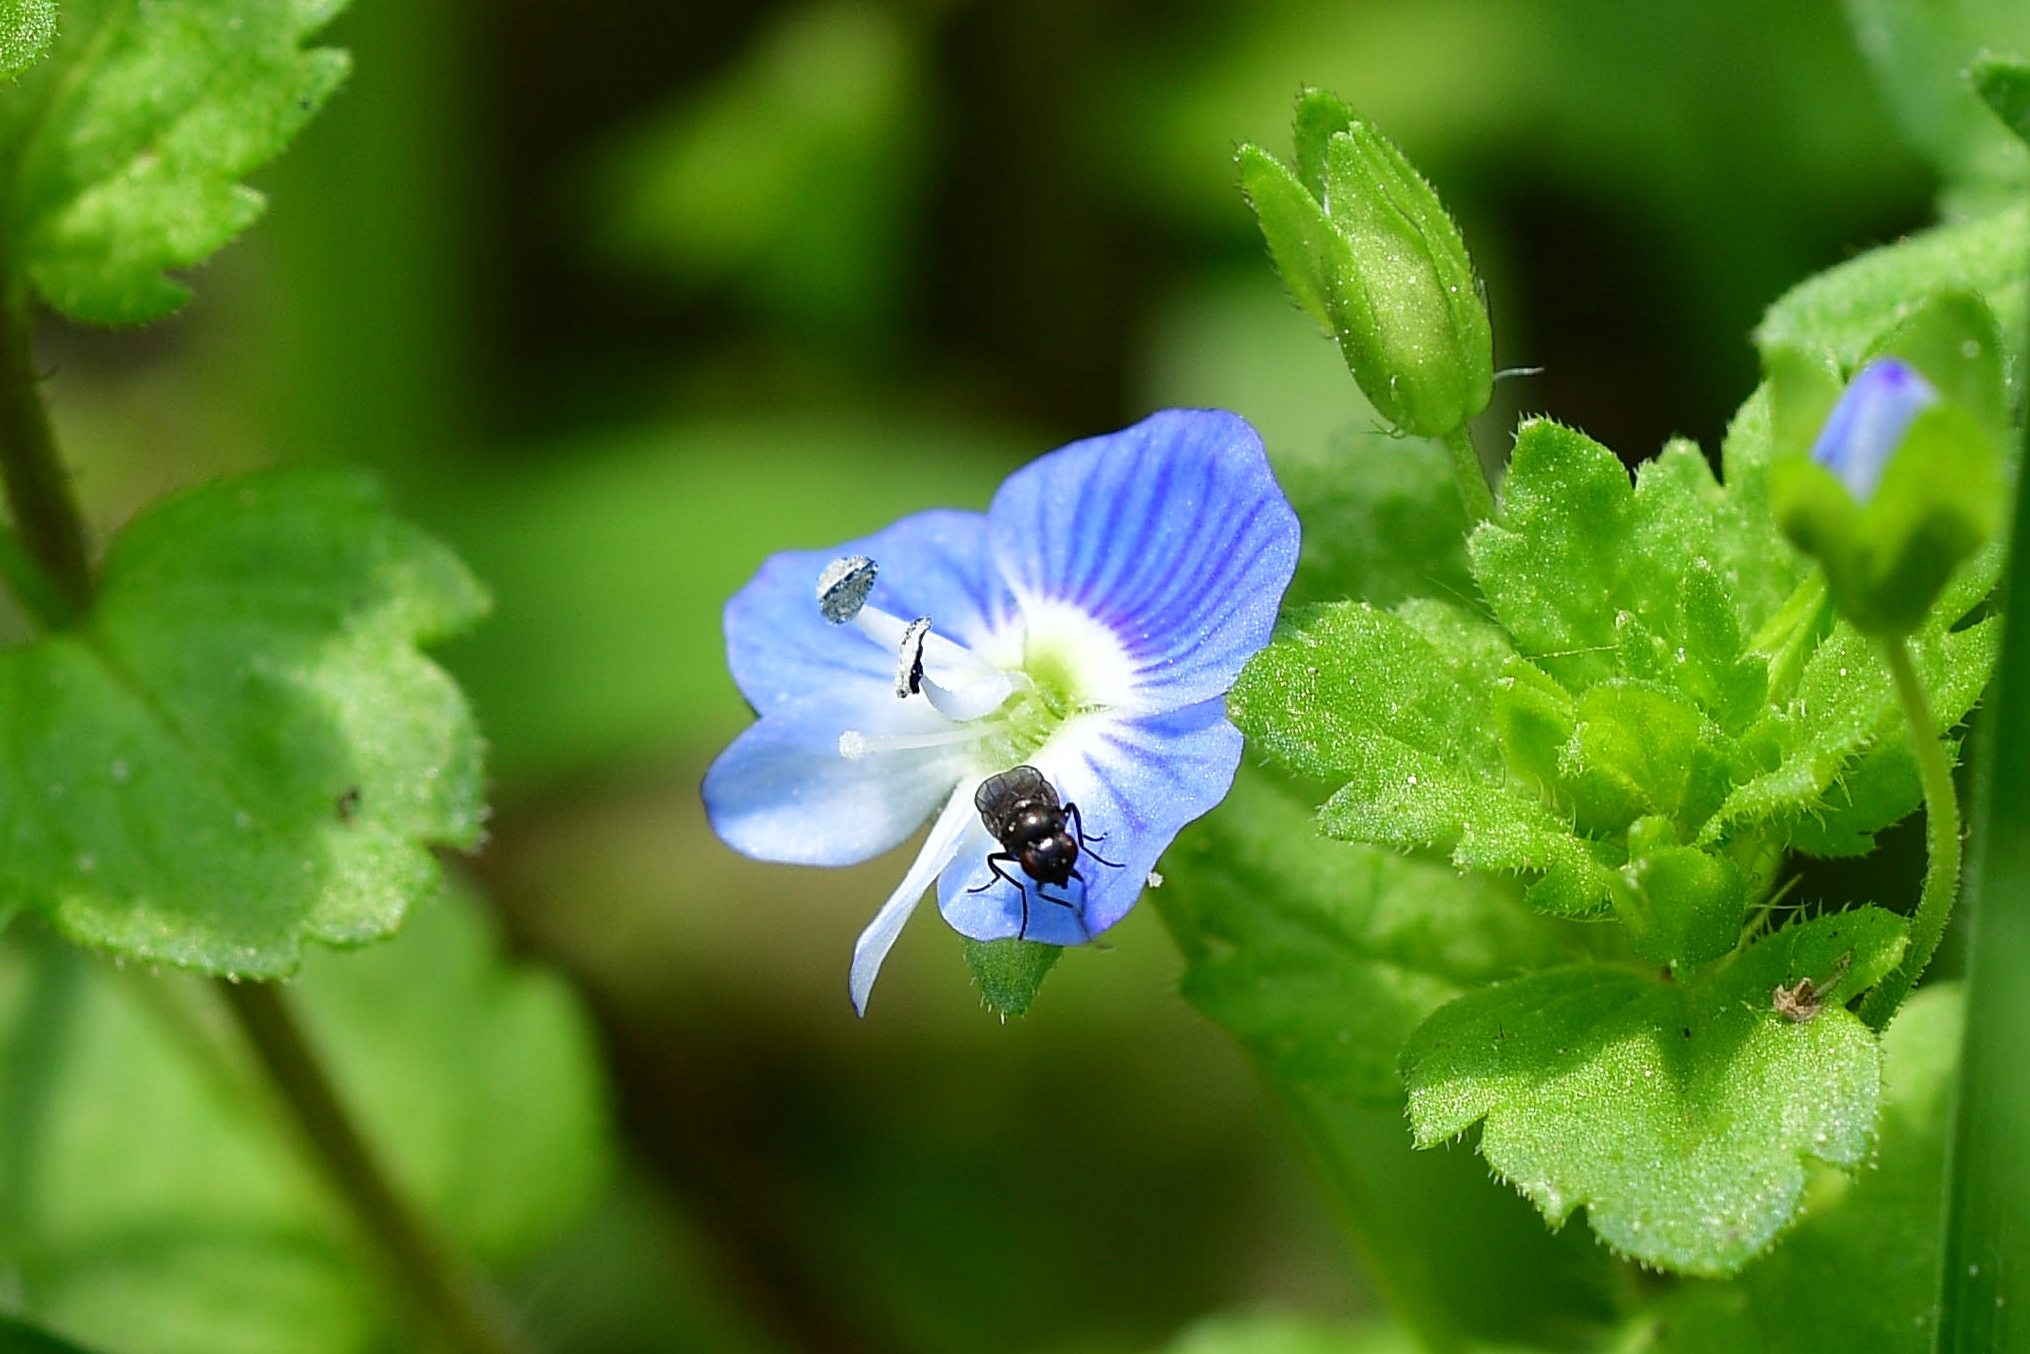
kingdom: Plantae
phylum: Tracheophyta
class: Magnoliopsida
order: Lamiales
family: Plantaginaceae
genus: Veronica
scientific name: Veronica persica
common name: Common field-speedwell
